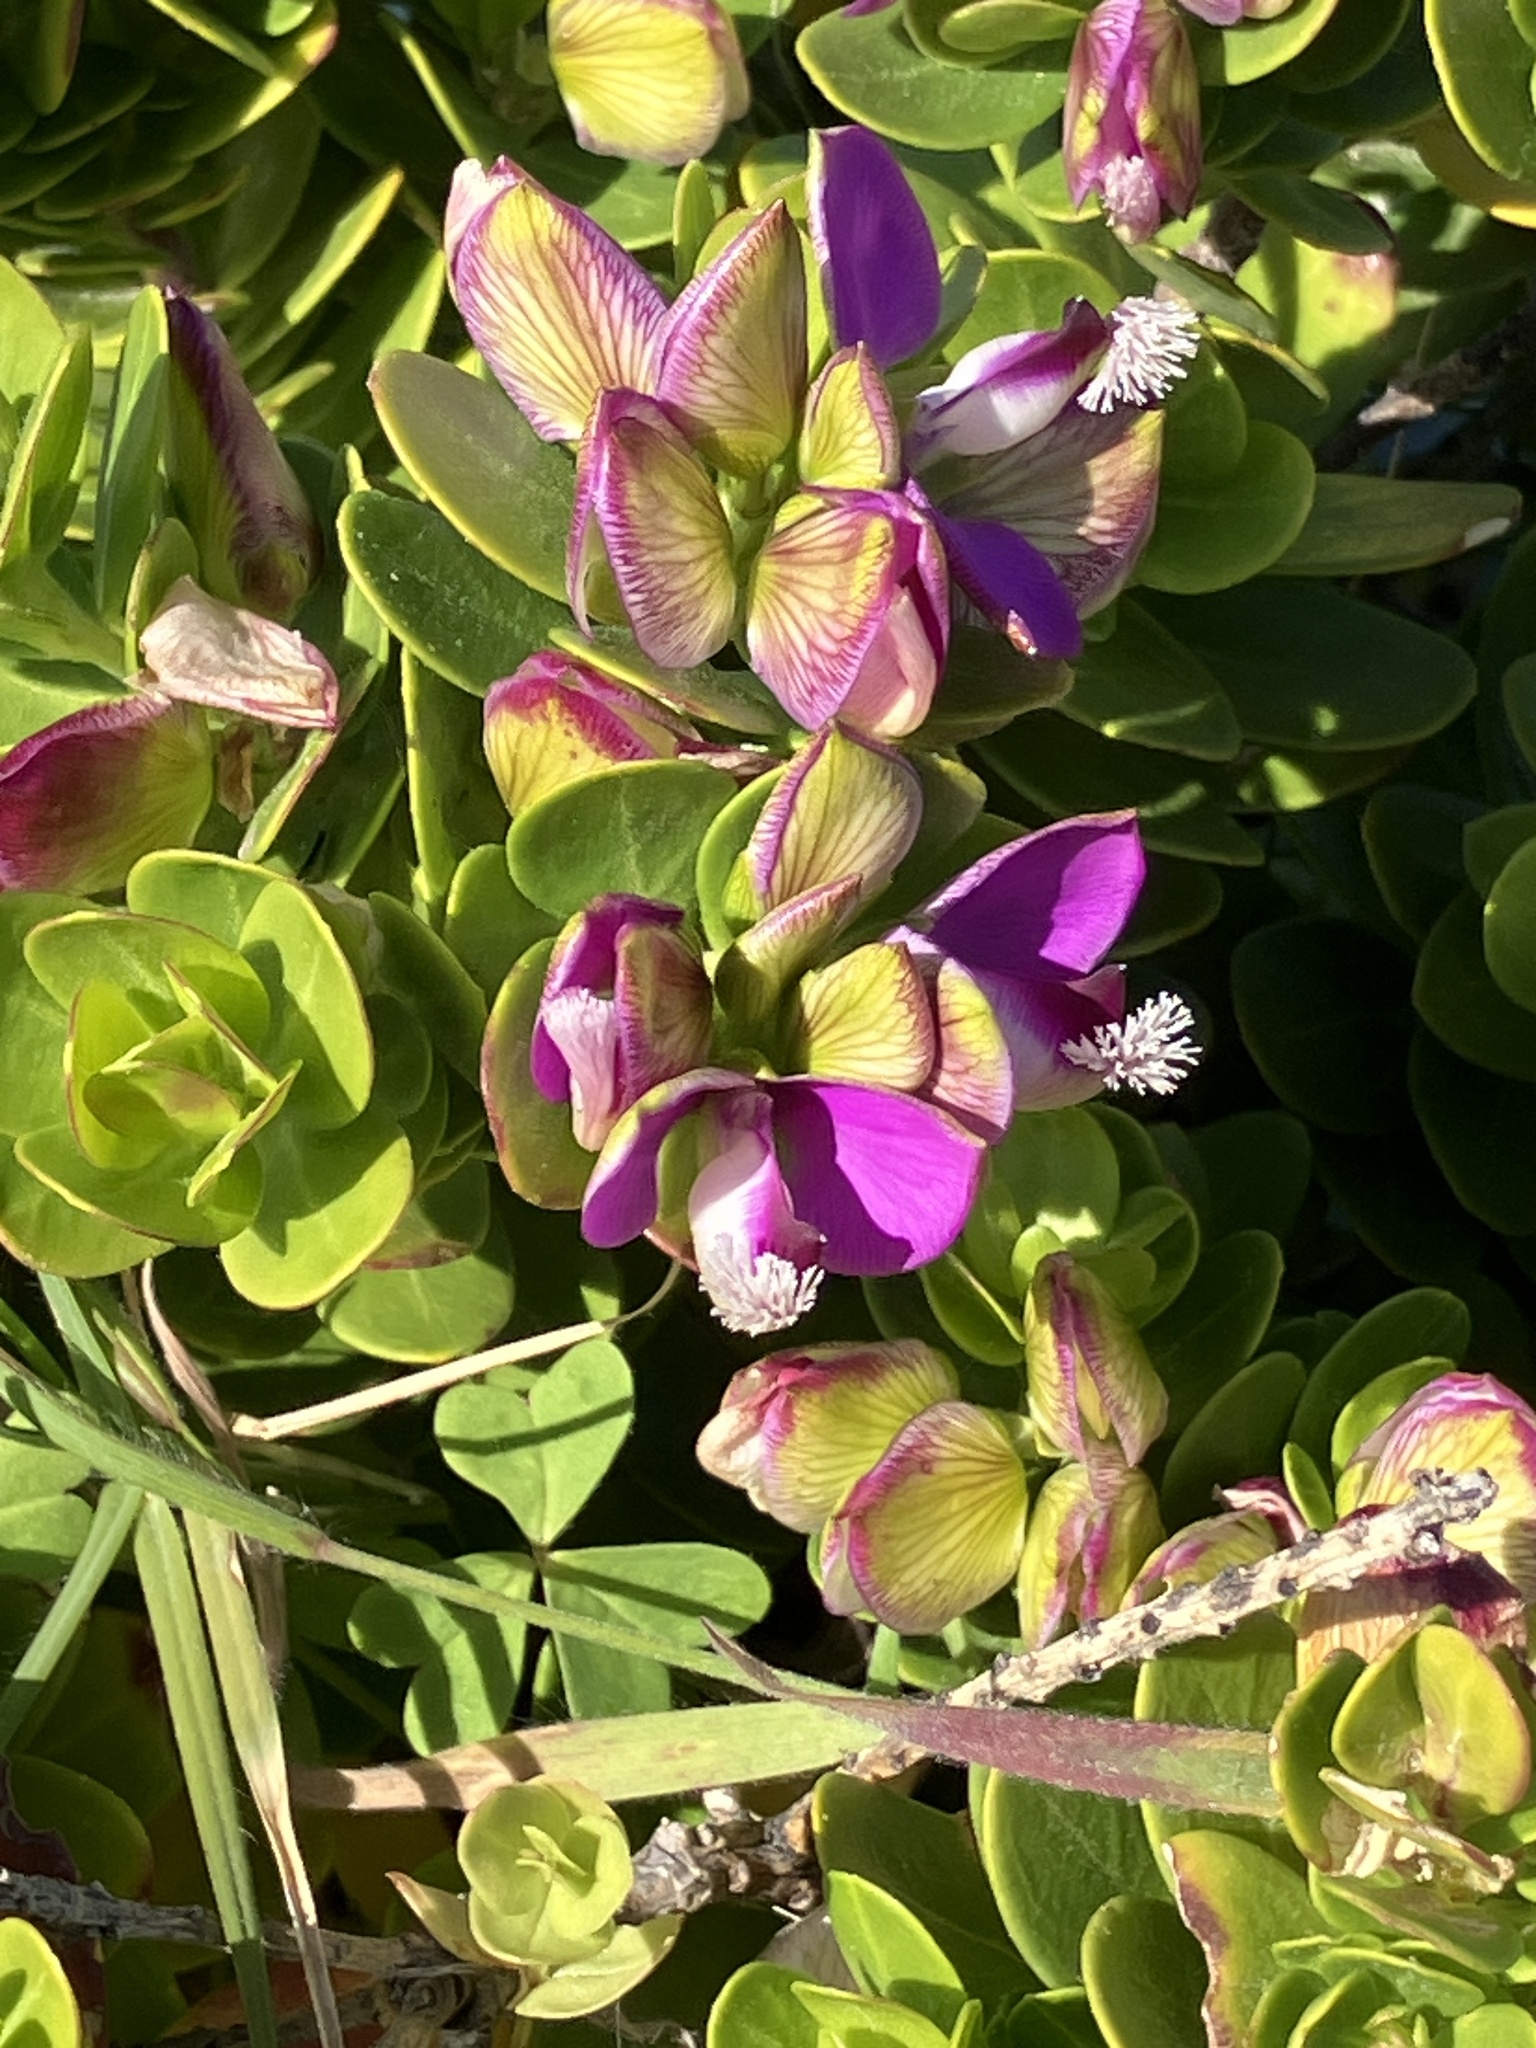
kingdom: Plantae
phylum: Tracheophyta
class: Magnoliopsida
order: Fabales
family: Polygalaceae
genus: Polygala
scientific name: Polygala myrtifolia
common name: Myrtle-leaf milkwort
